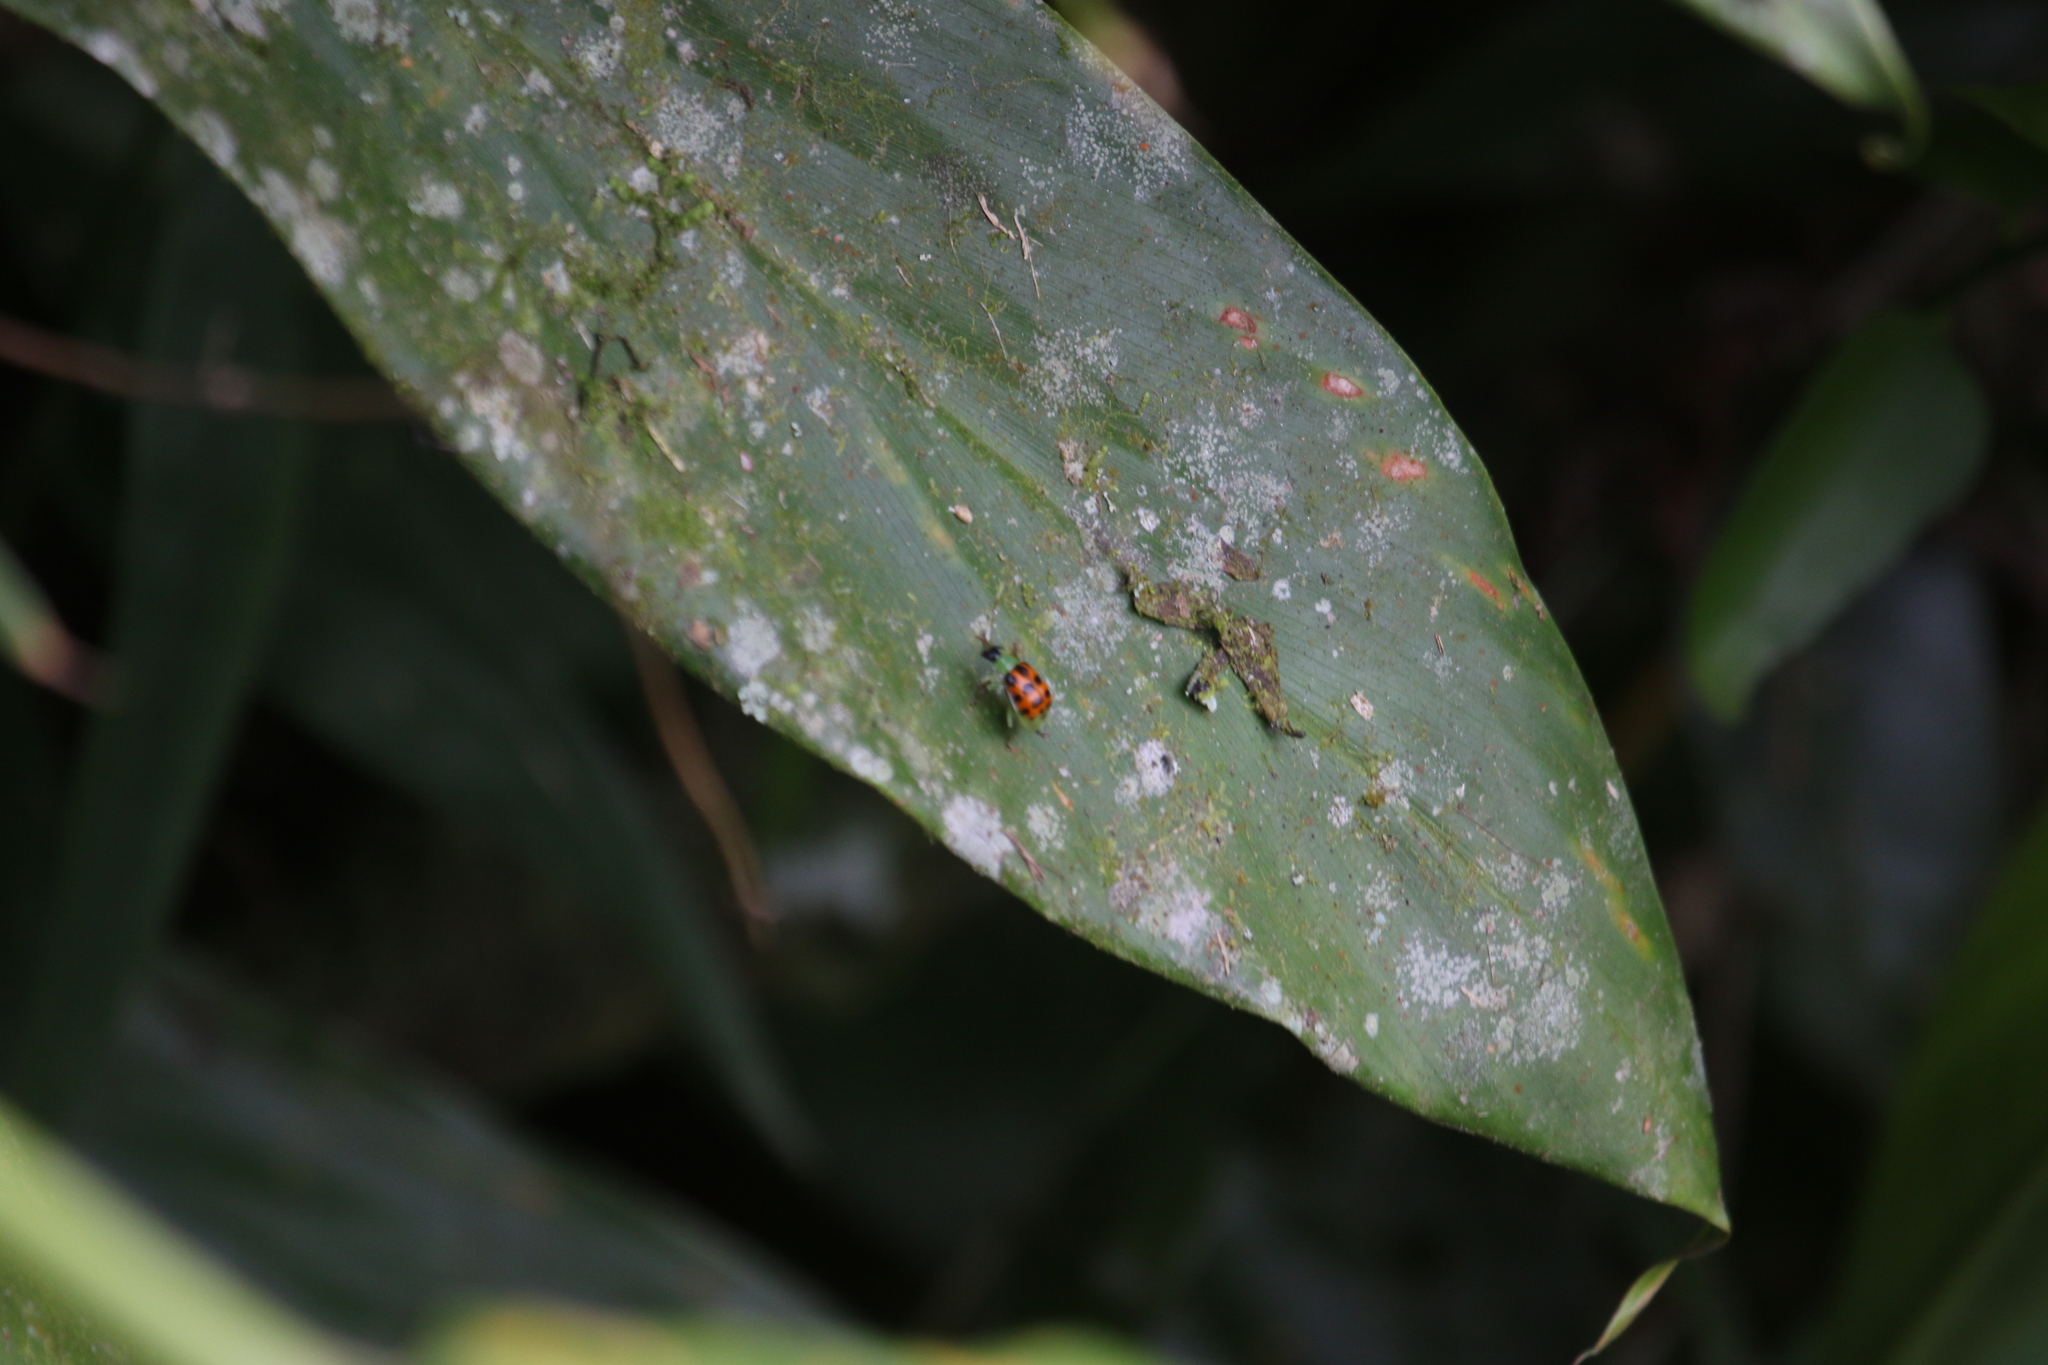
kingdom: Animalia
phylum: Arthropoda
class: Insecta
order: Coleoptera
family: Chrysomelidae
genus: Diabrotica
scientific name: Diabrotica limitata
